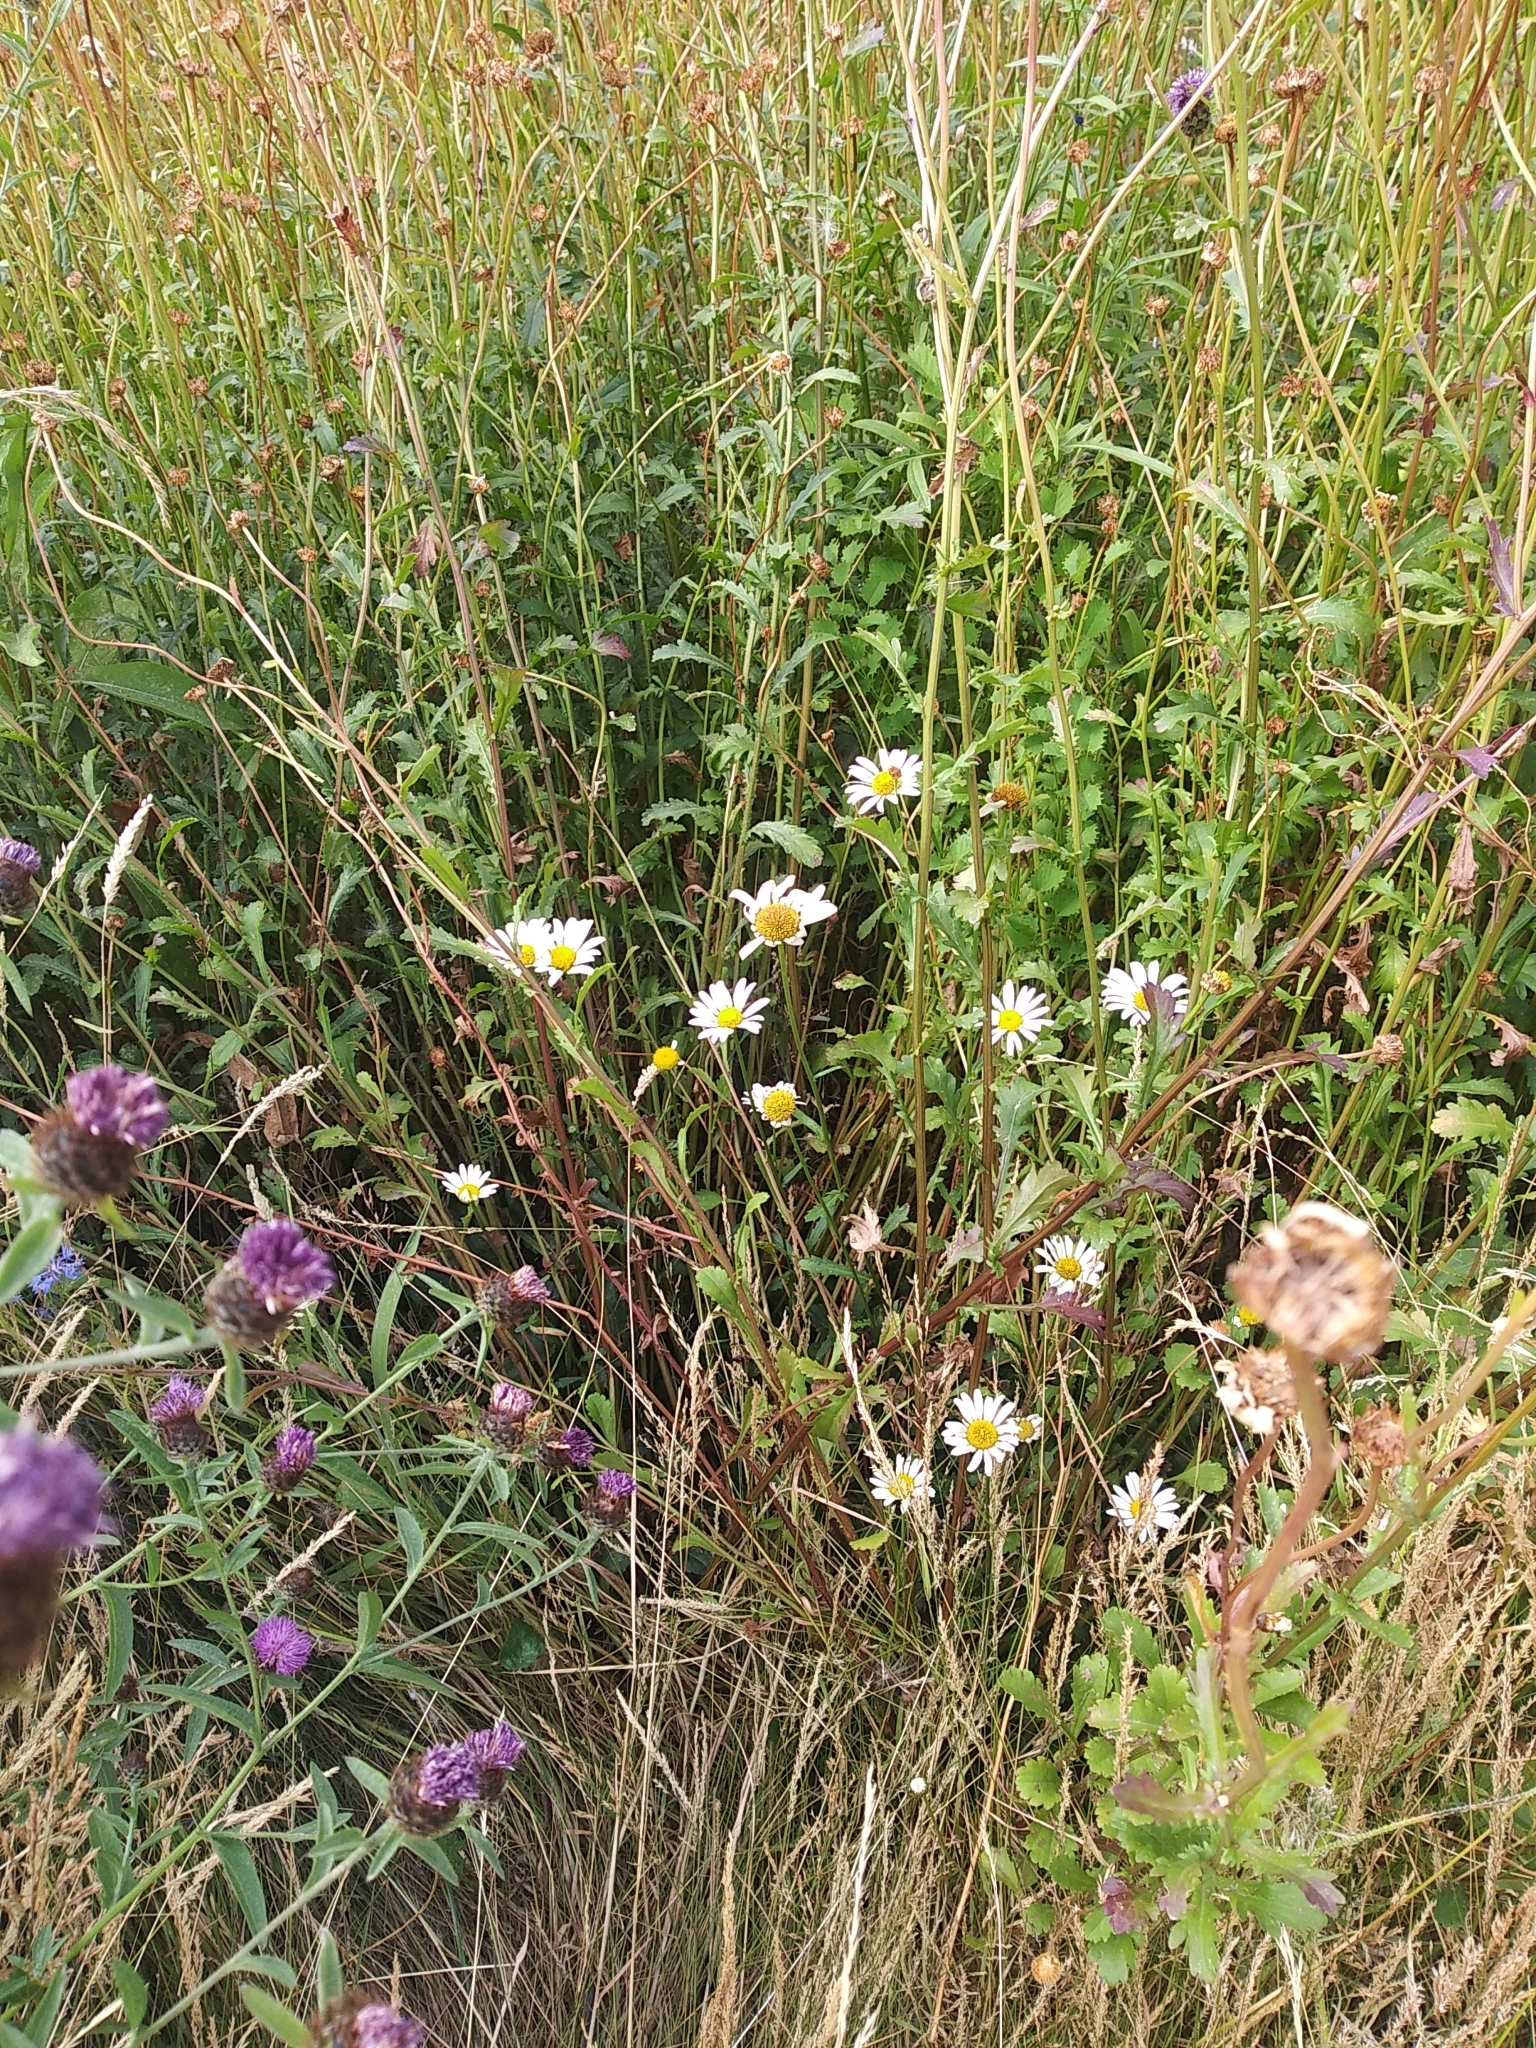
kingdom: Plantae
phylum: Tracheophyta
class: Magnoliopsida
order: Asterales
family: Asteraceae
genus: Leucanthemum
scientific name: Leucanthemum vulgare
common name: Oxeye daisy
